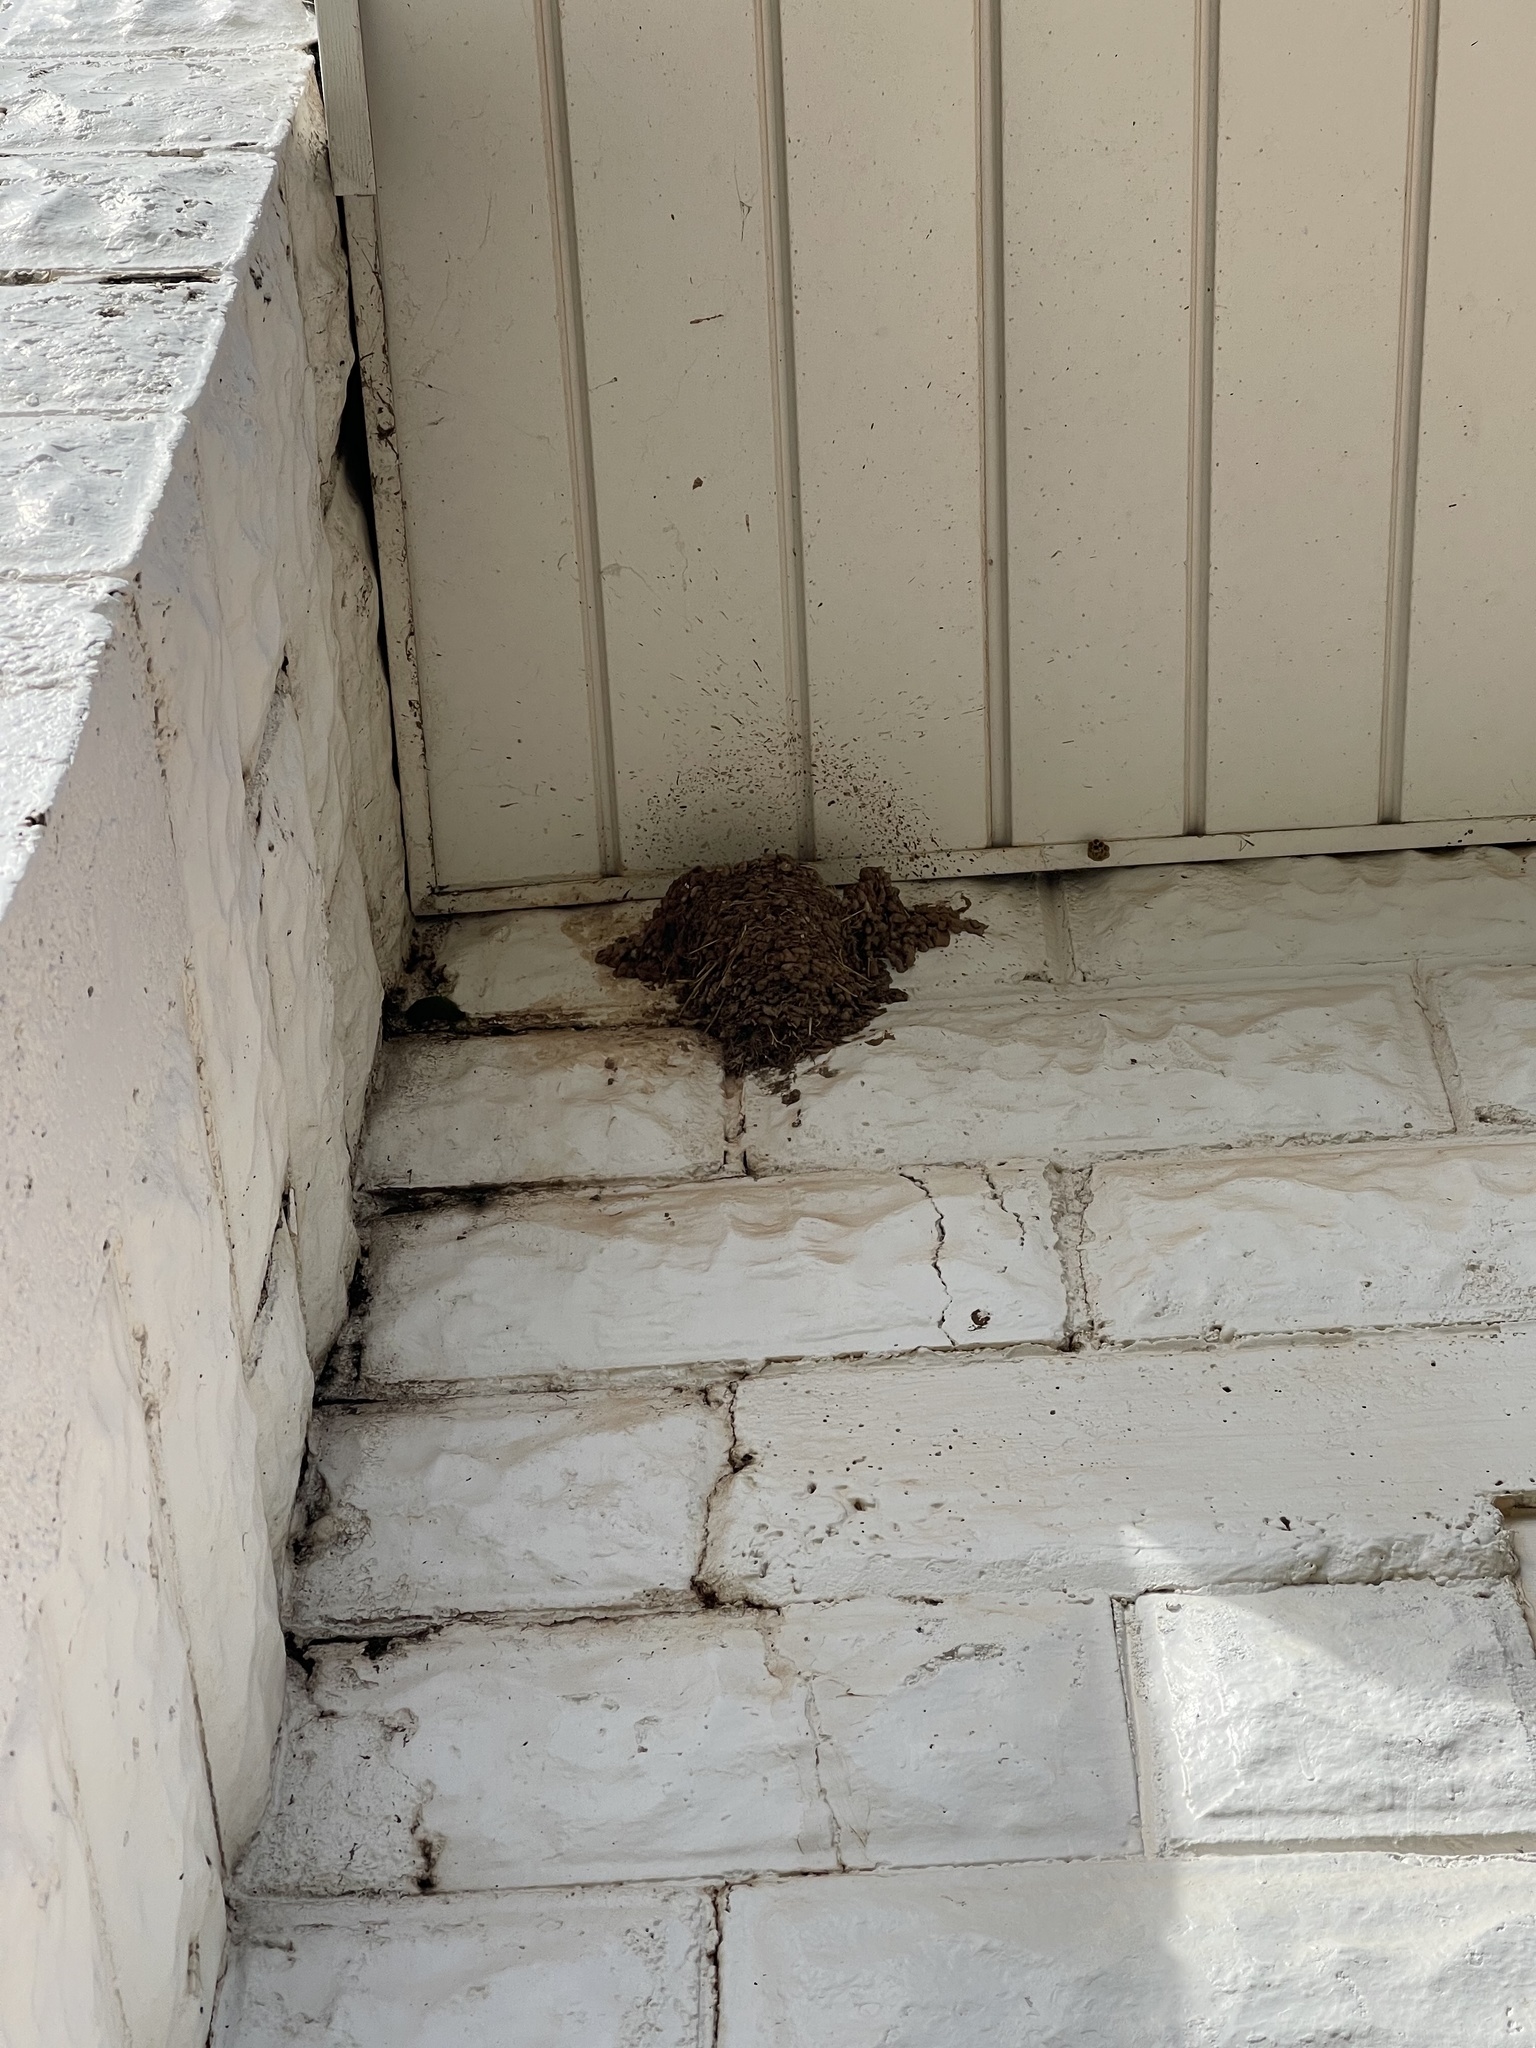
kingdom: Animalia
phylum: Chordata
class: Aves
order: Passeriformes
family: Hirundinidae
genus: Hirundo
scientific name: Hirundo rustica
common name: Barn swallow
